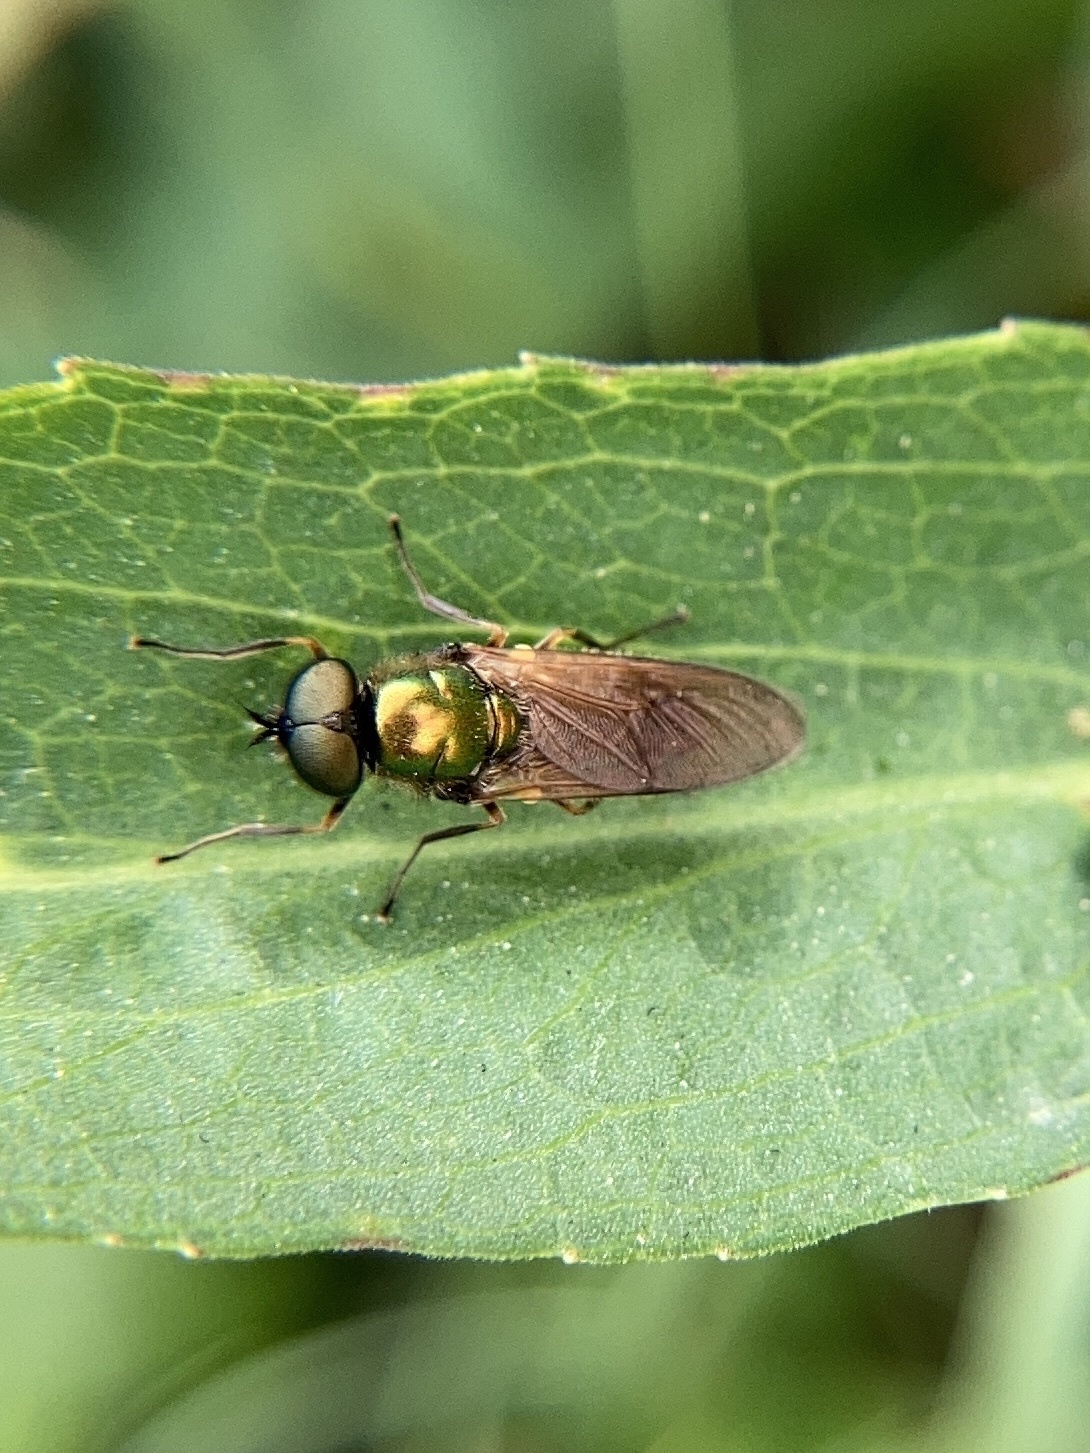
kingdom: Animalia
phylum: Arthropoda
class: Insecta
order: Diptera
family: Stratiomyidae
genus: Chloromyia
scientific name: Chloromyia formosa
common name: Soldier fly
